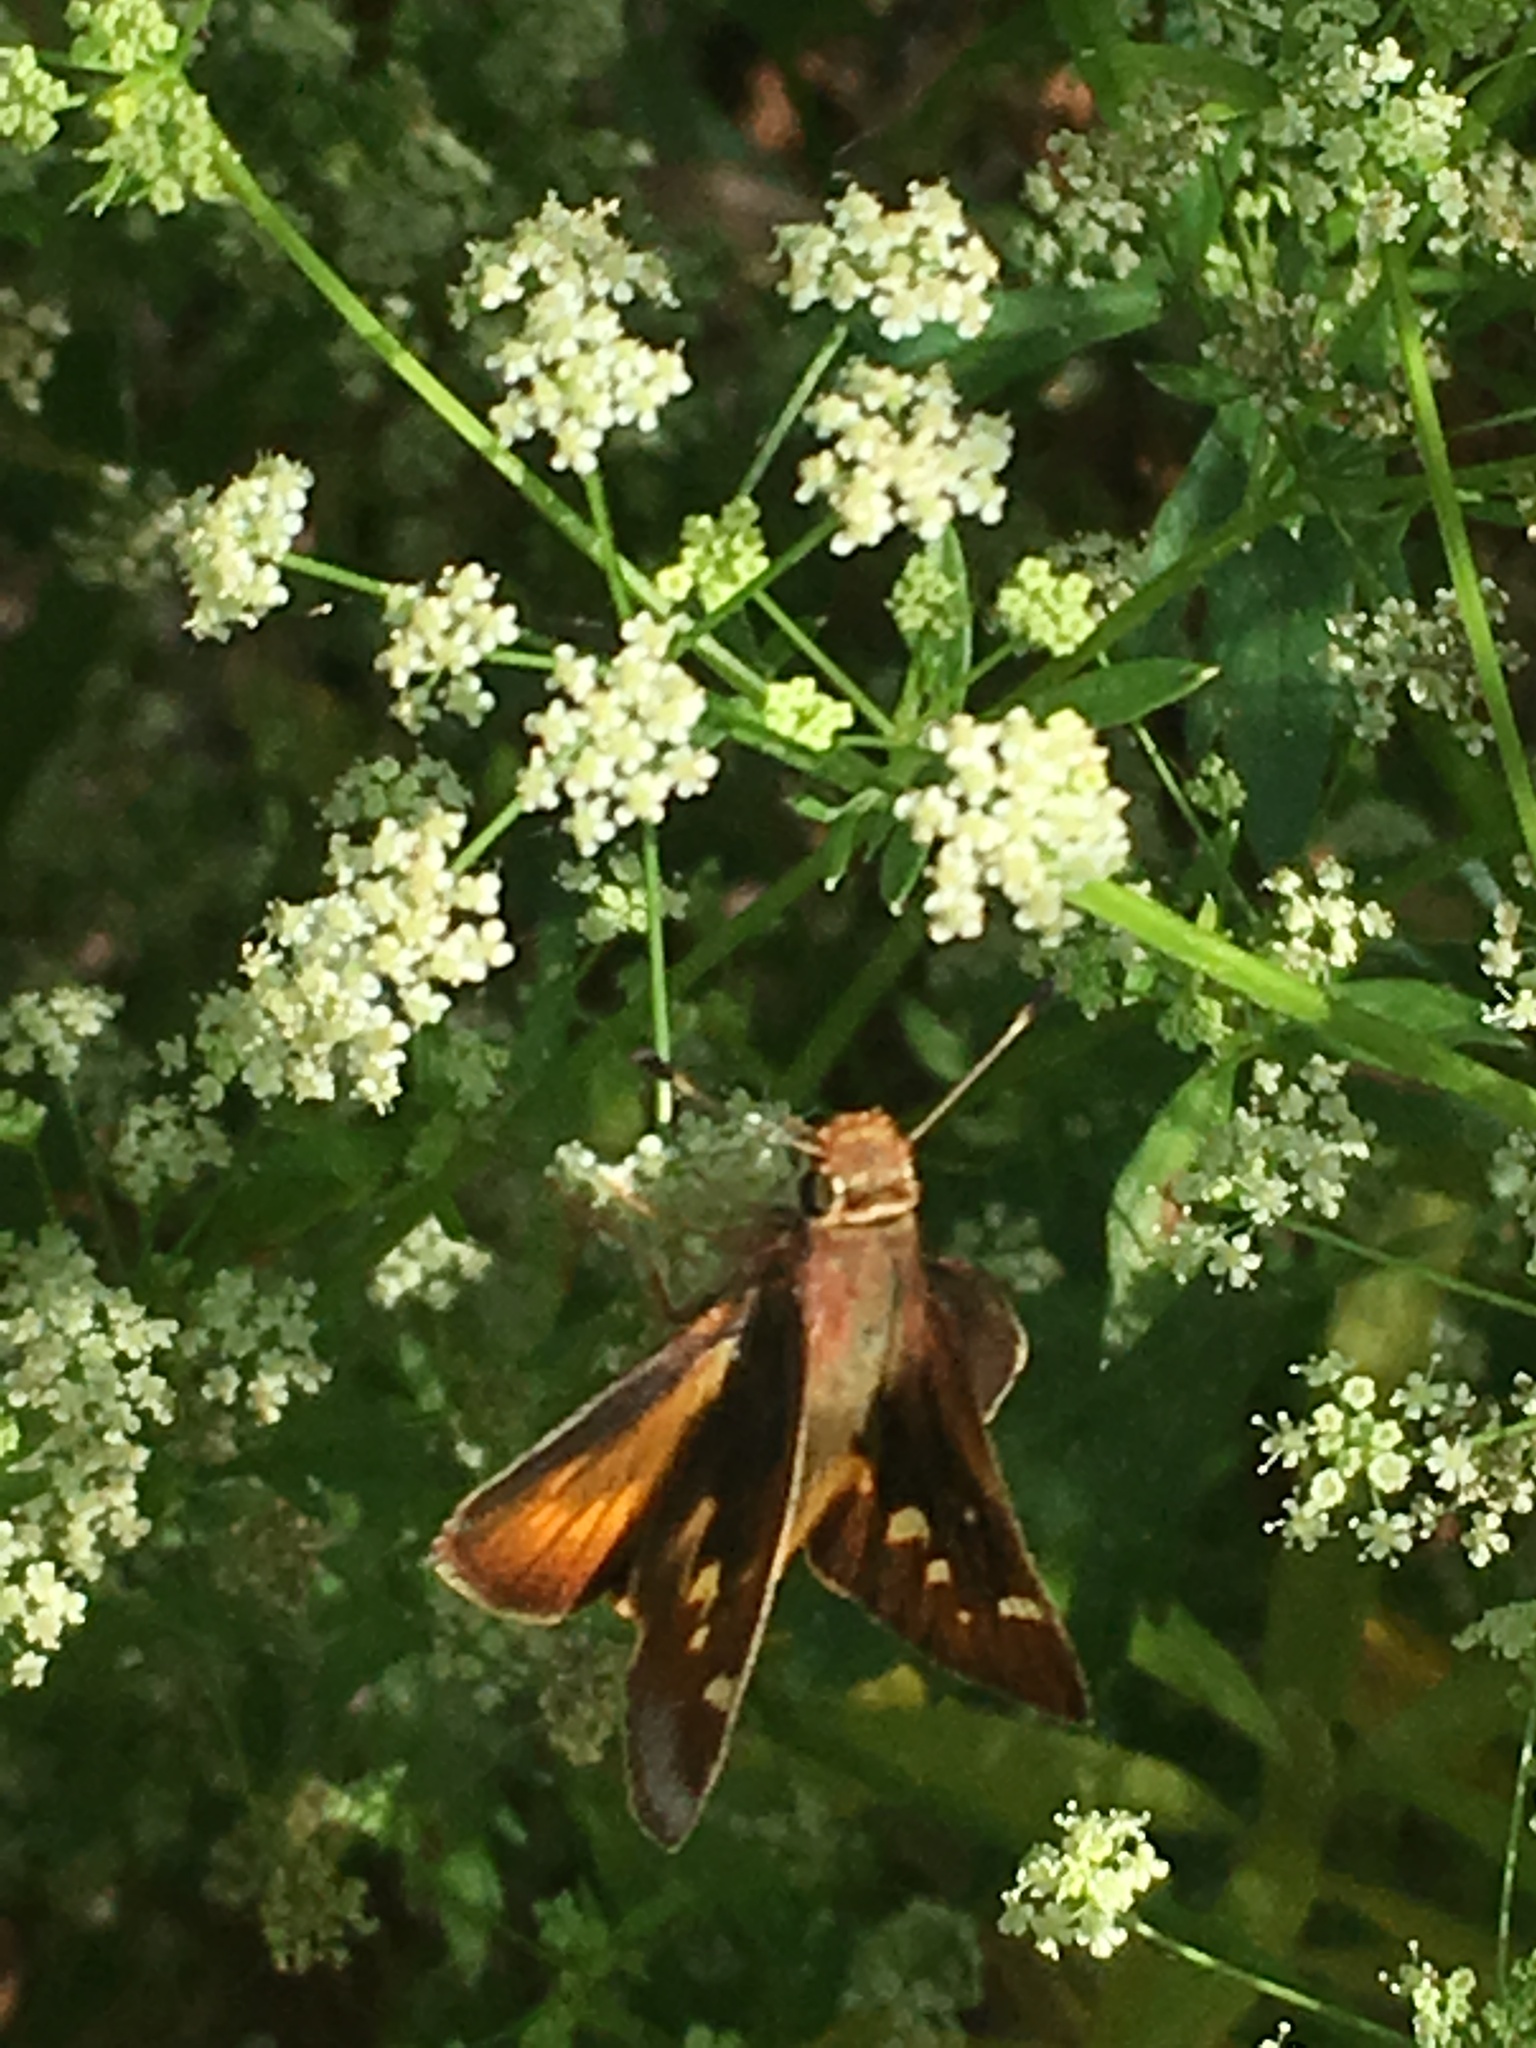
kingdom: Animalia
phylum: Arthropoda
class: Insecta
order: Lepidoptera
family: Hesperiidae
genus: Lon
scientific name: Lon melane
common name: Umber skipper
